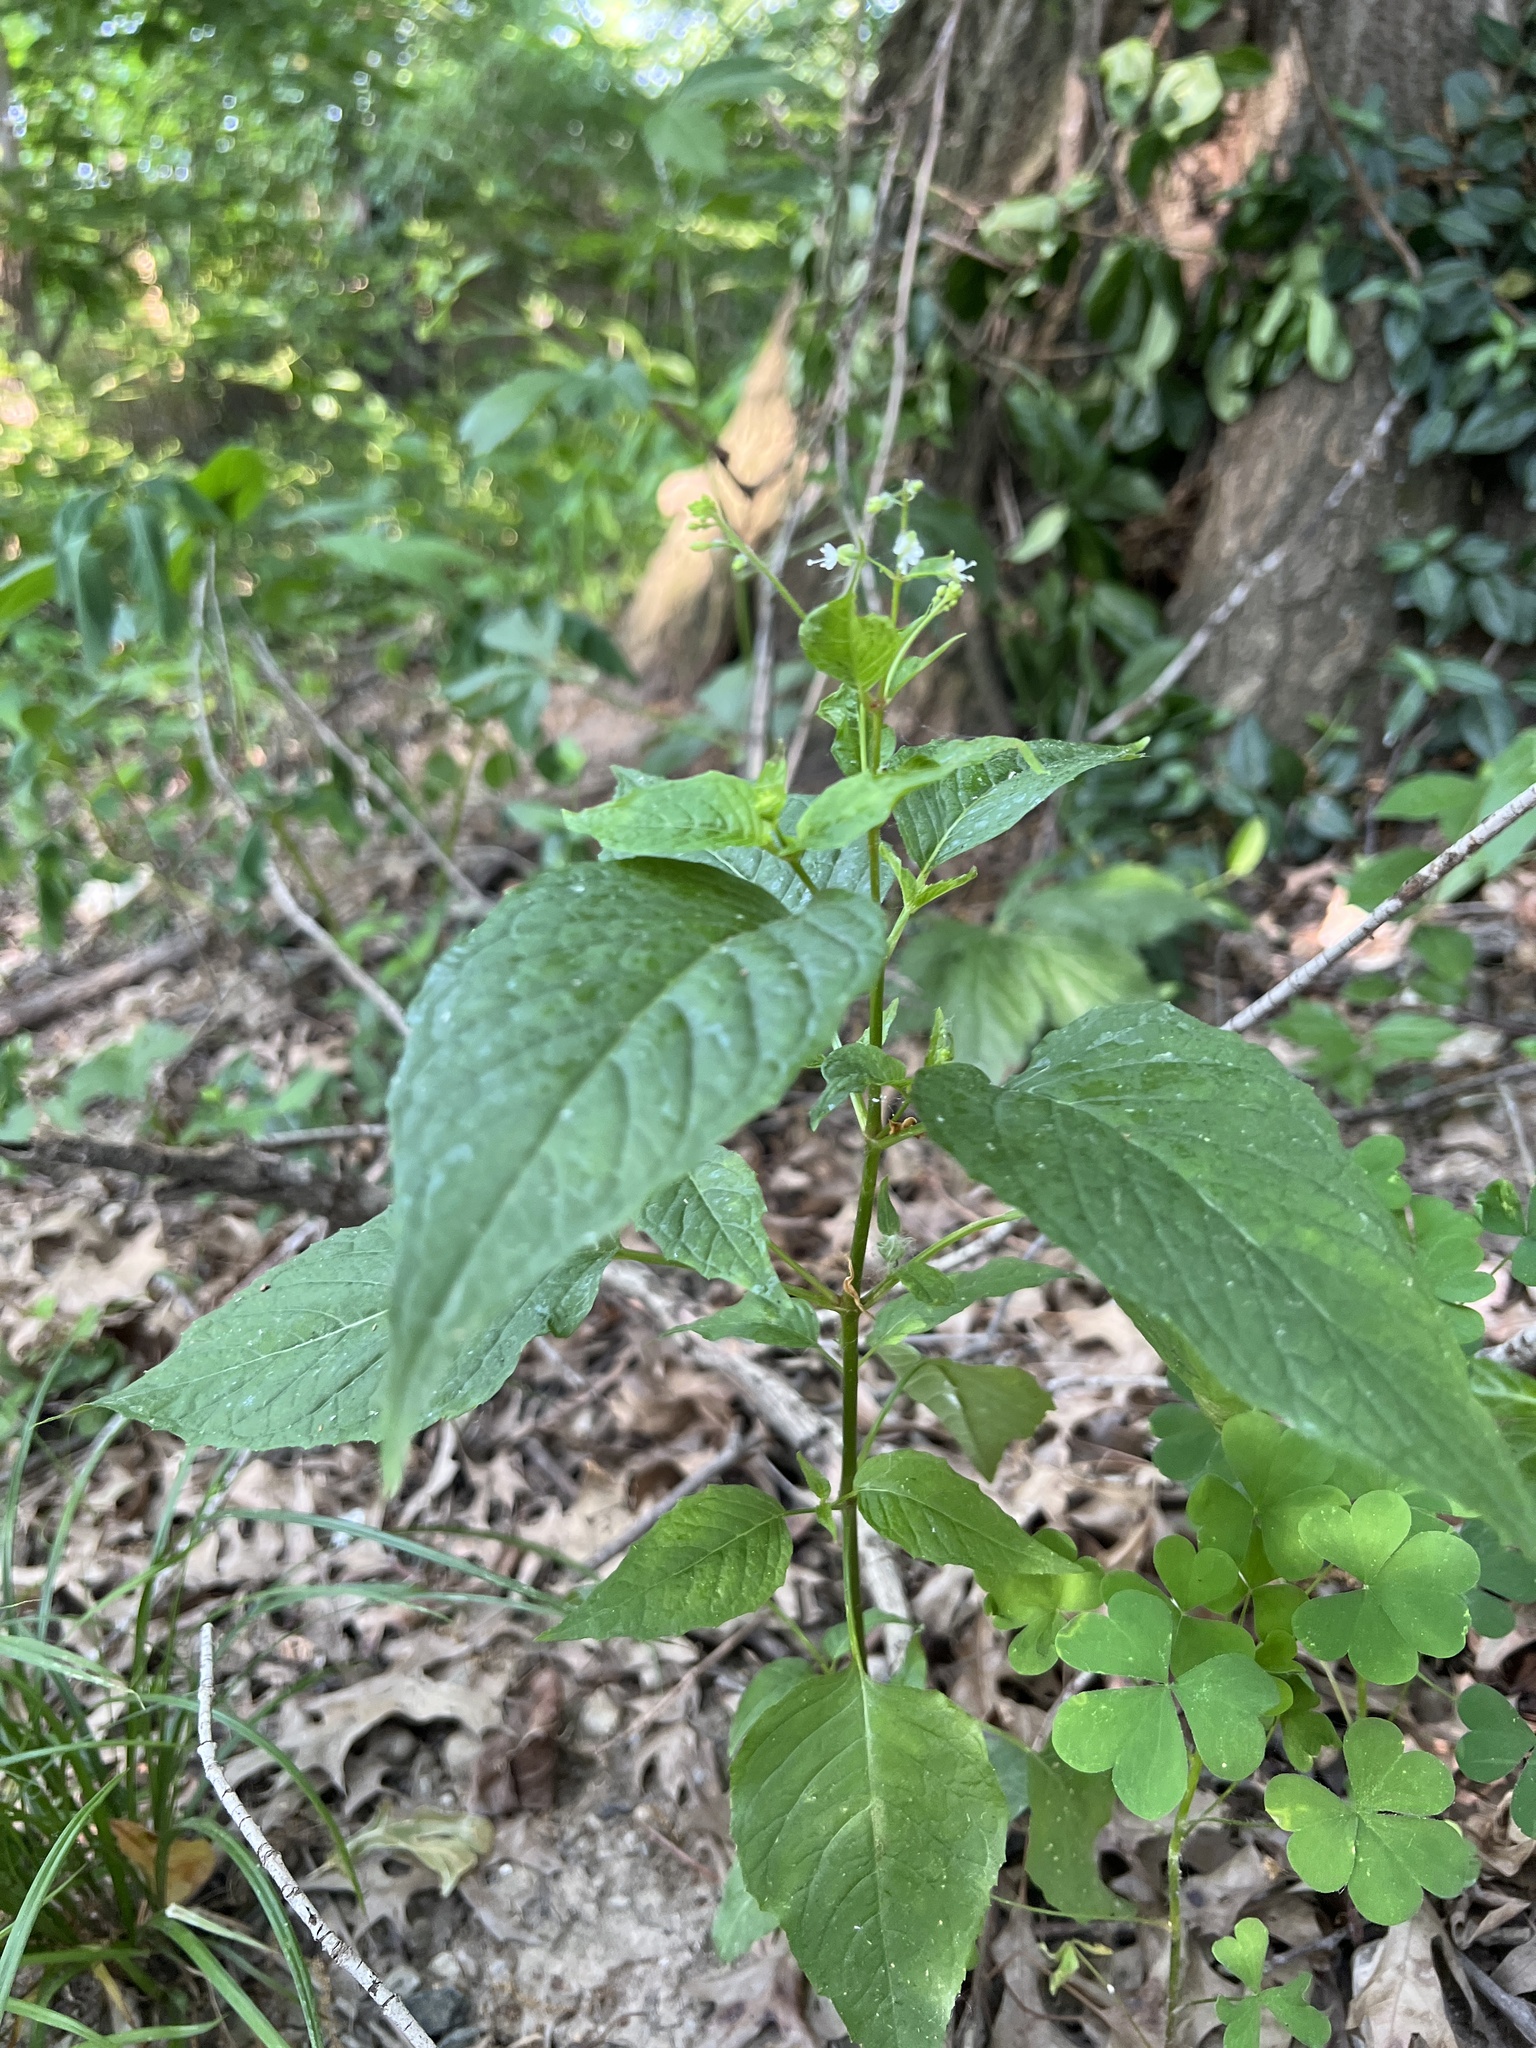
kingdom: Plantae
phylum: Tracheophyta
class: Magnoliopsida
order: Myrtales
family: Onagraceae
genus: Circaea
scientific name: Circaea canadensis
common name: Broad-leaved enchanter's nightshade
